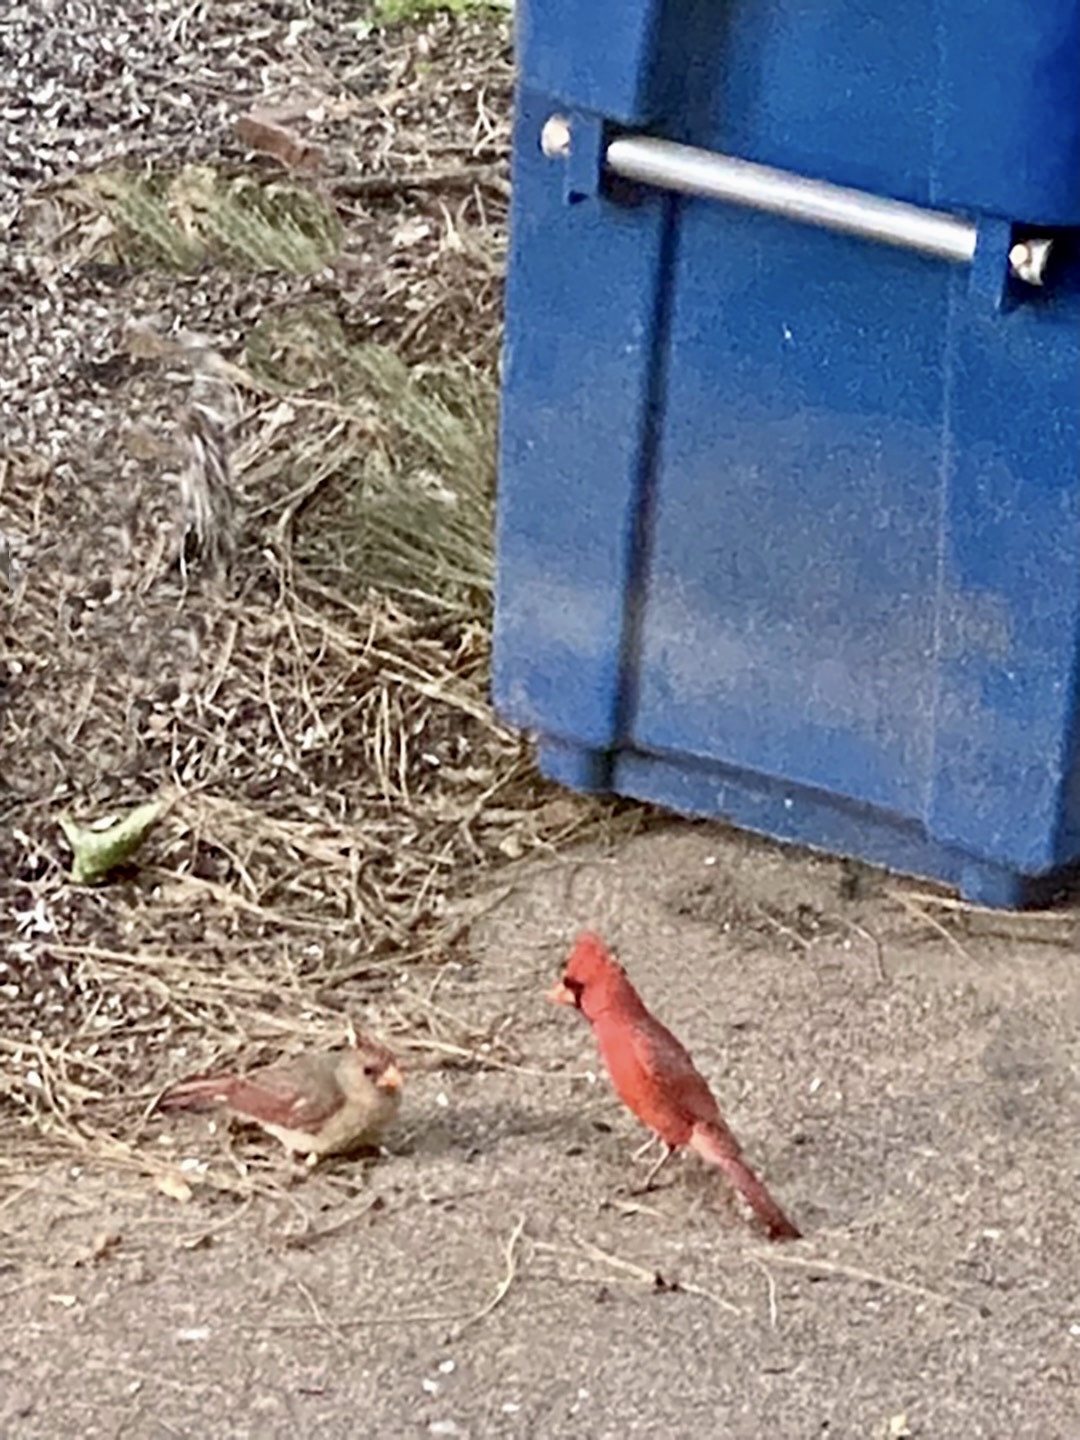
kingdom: Animalia
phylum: Chordata
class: Aves
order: Passeriformes
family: Cardinalidae
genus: Cardinalis
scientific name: Cardinalis cardinalis
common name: Northern cardinal
